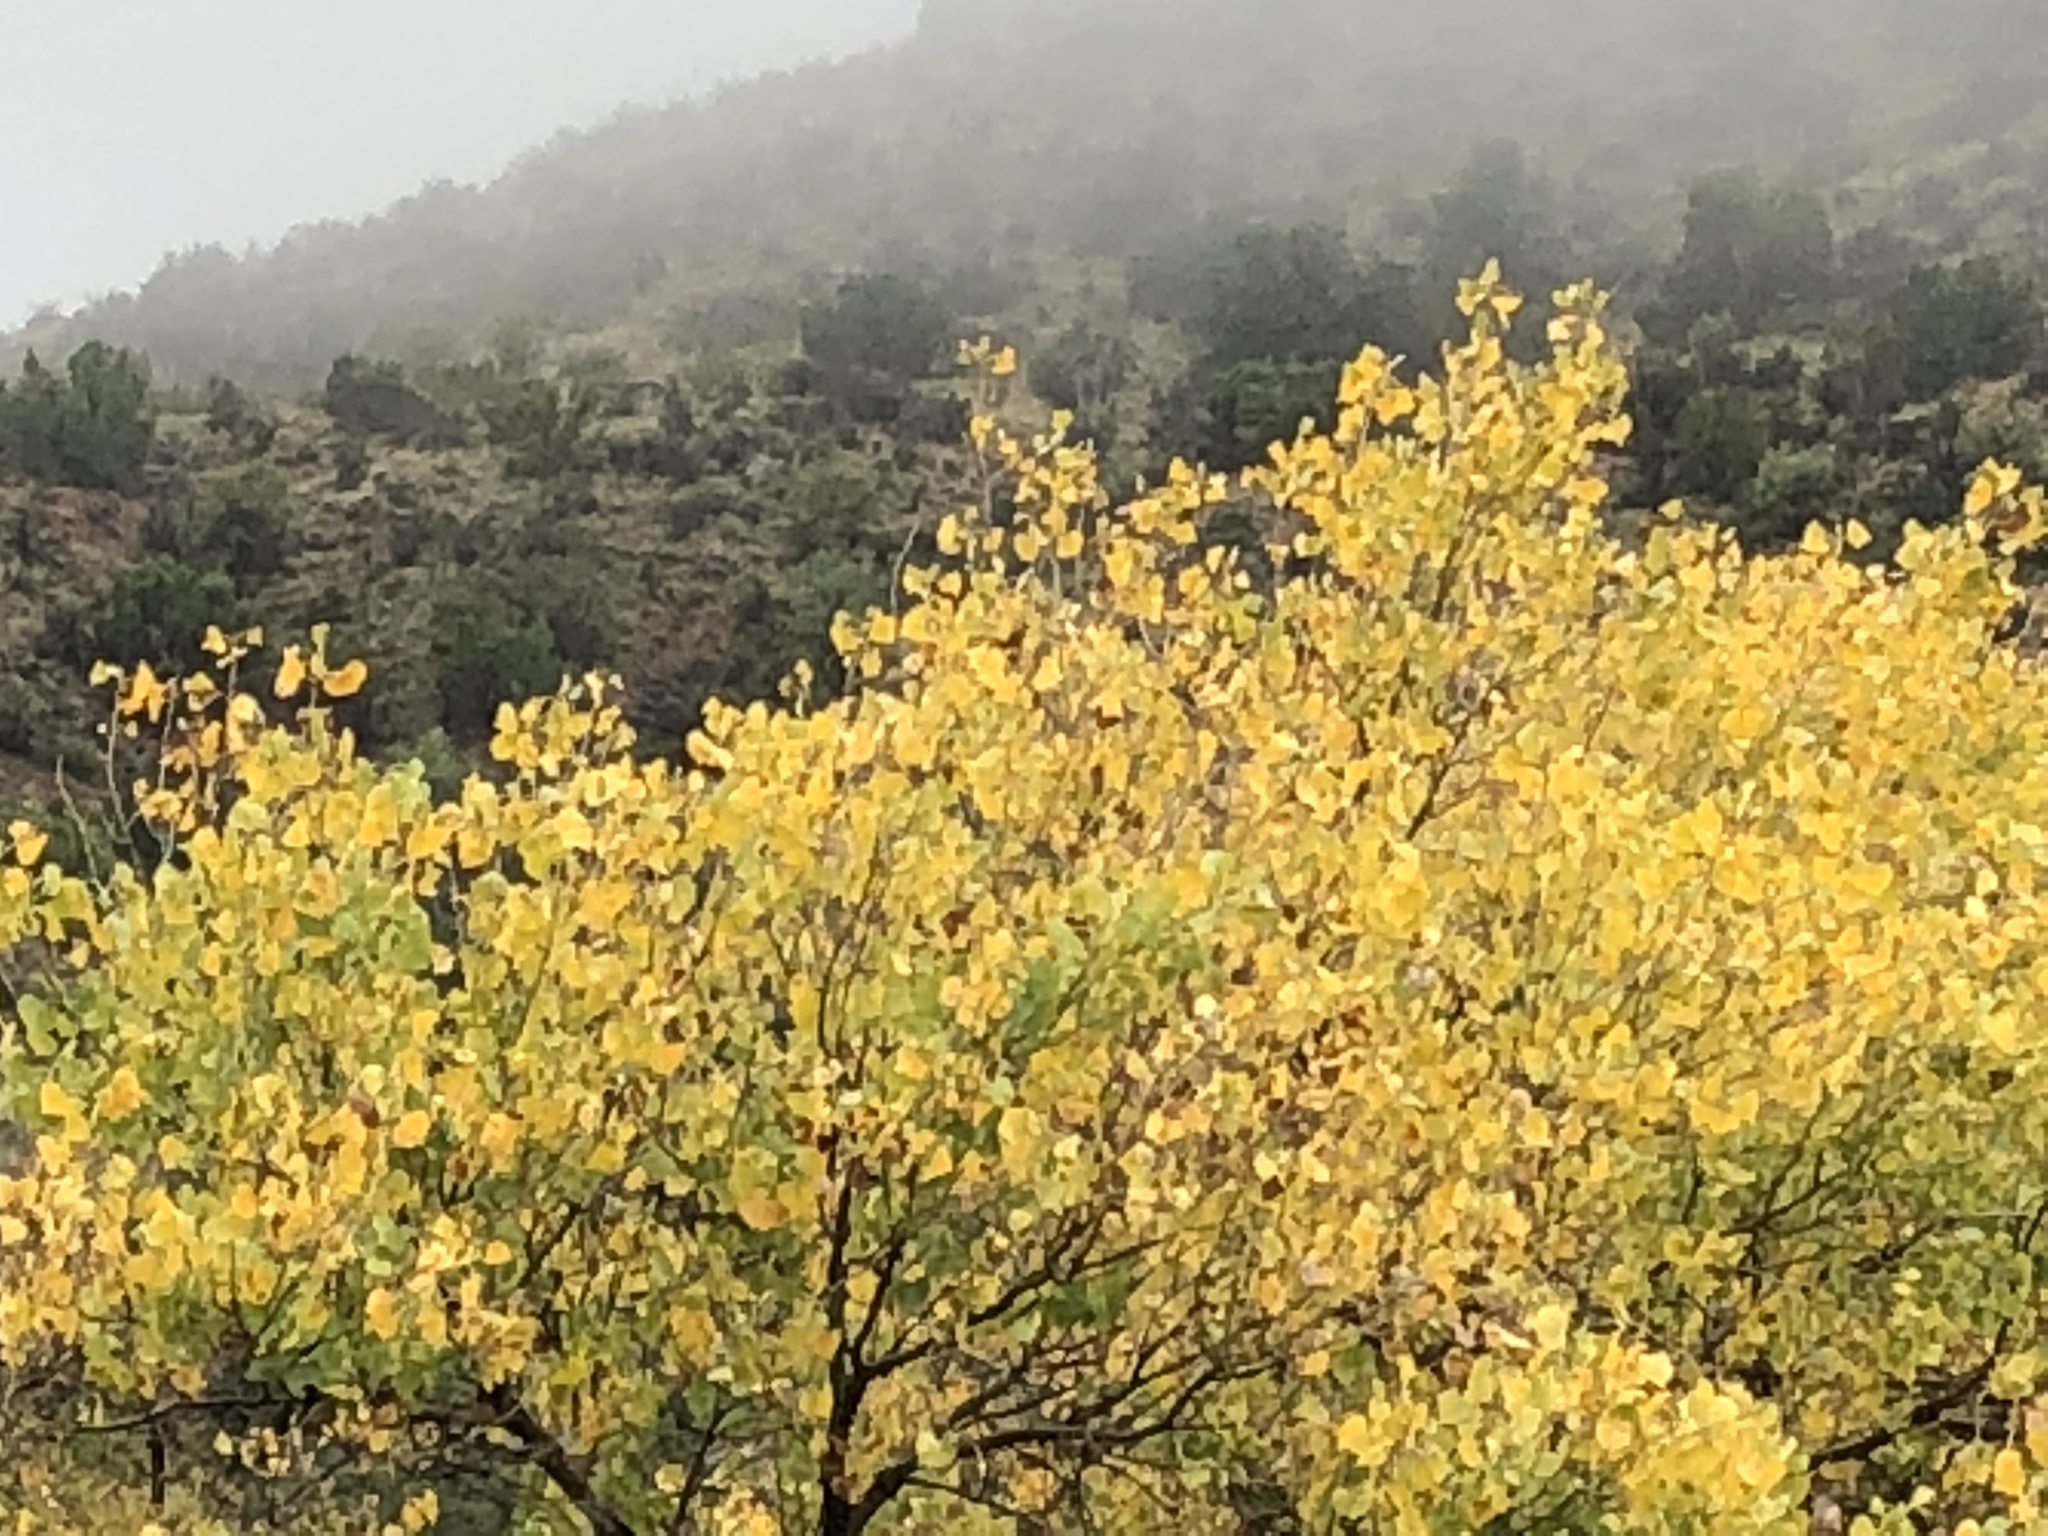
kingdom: Plantae
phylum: Tracheophyta
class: Magnoliopsida
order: Malpighiales
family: Salicaceae
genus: Populus
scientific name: Populus fremontii
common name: Fremont's cottonwood
